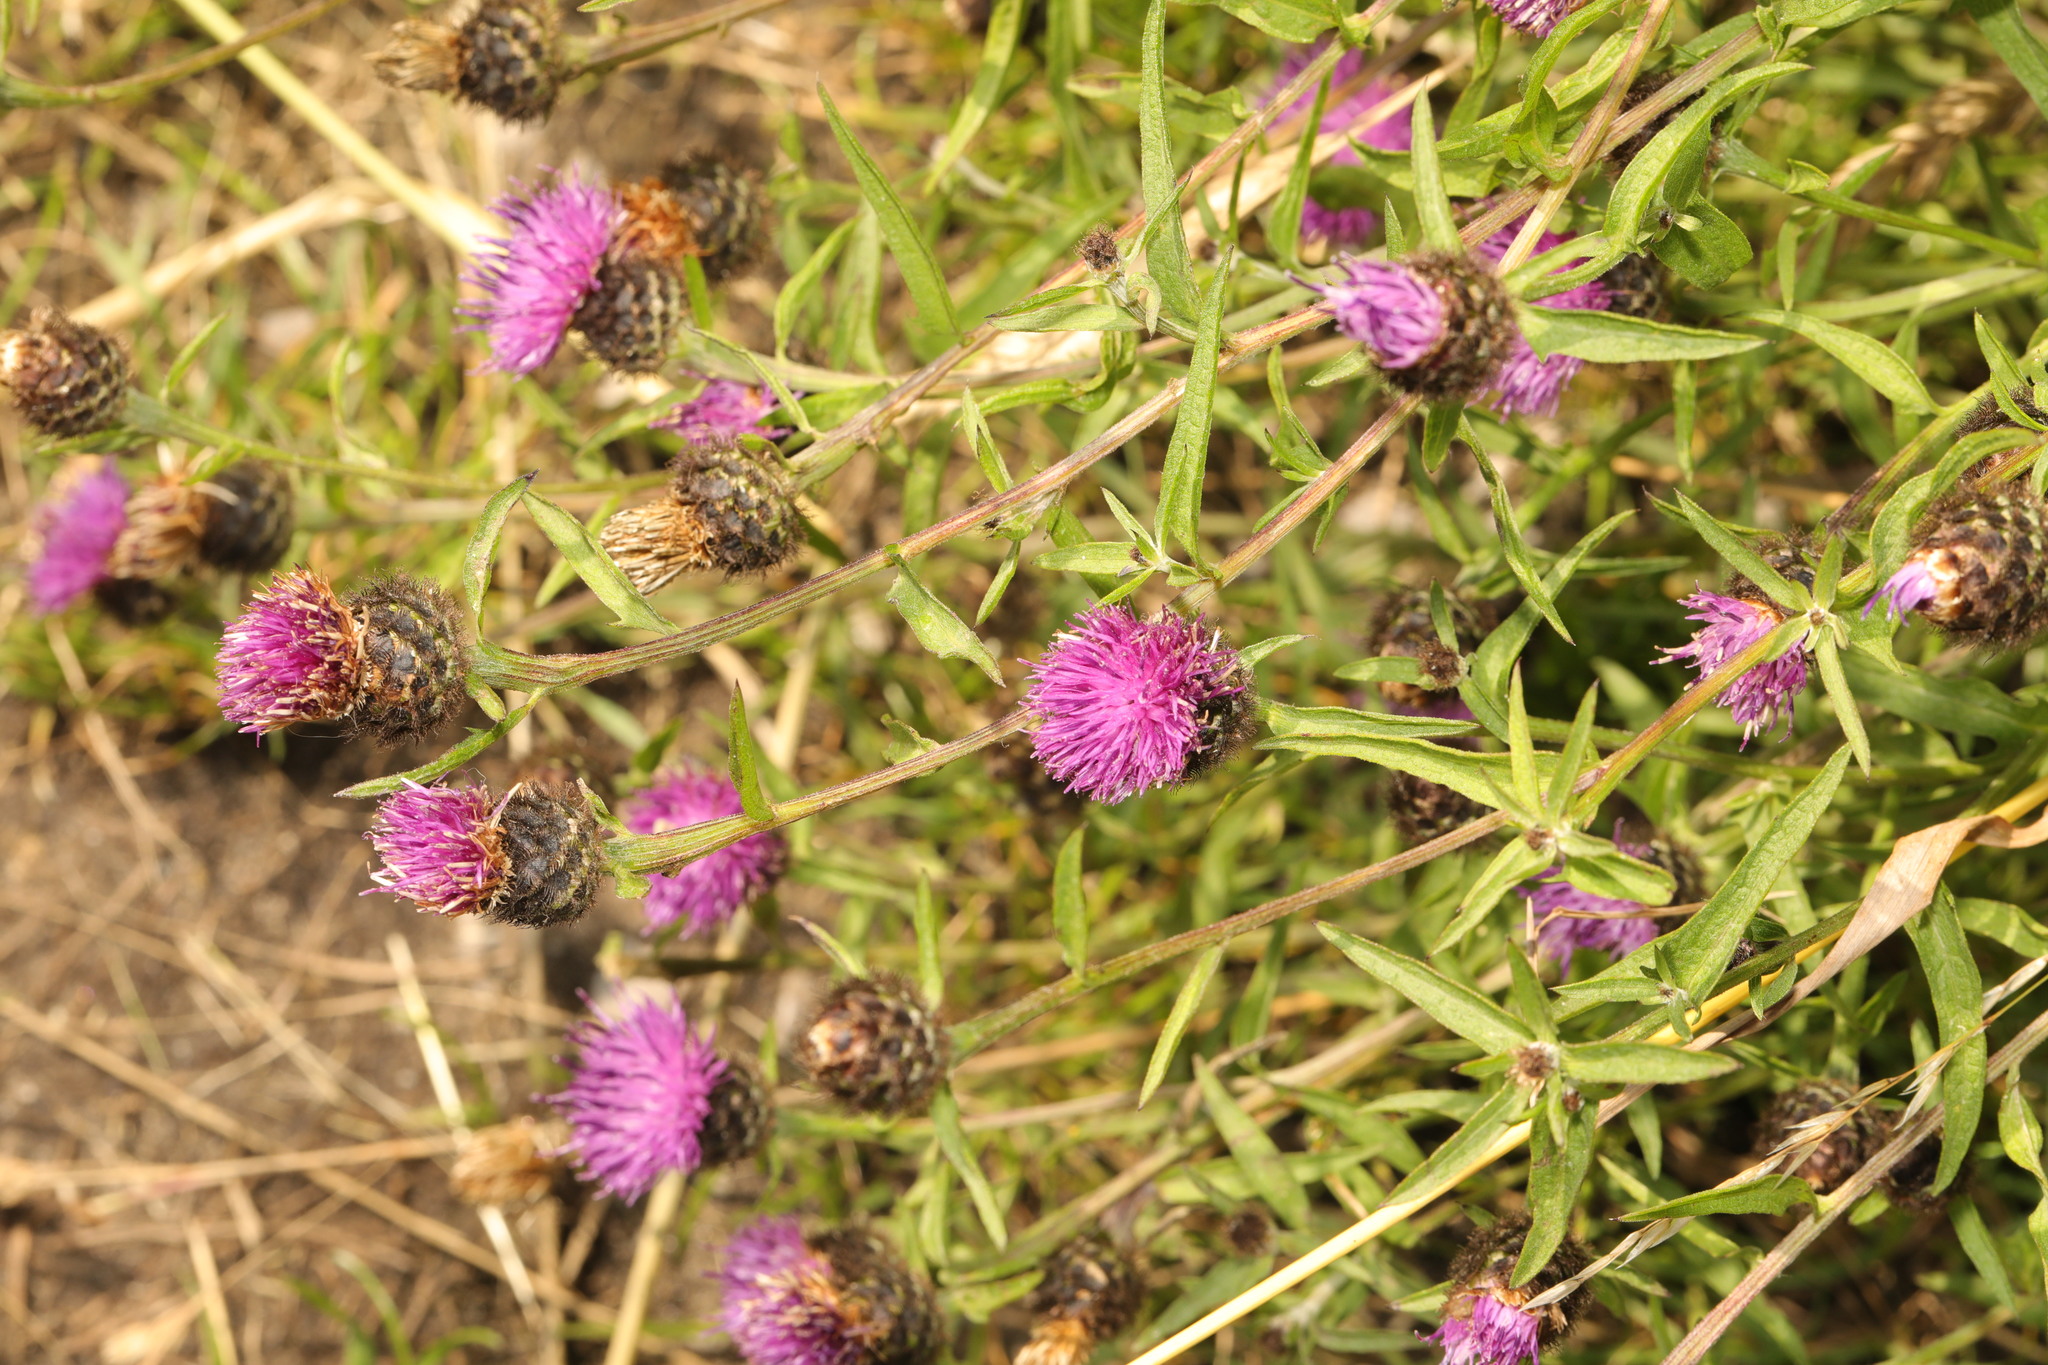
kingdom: Plantae
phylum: Tracheophyta
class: Magnoliopsida
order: Asterales
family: Asteraceae
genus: Centaurea
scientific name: Centaurea nigra
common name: Lesser knapweed
